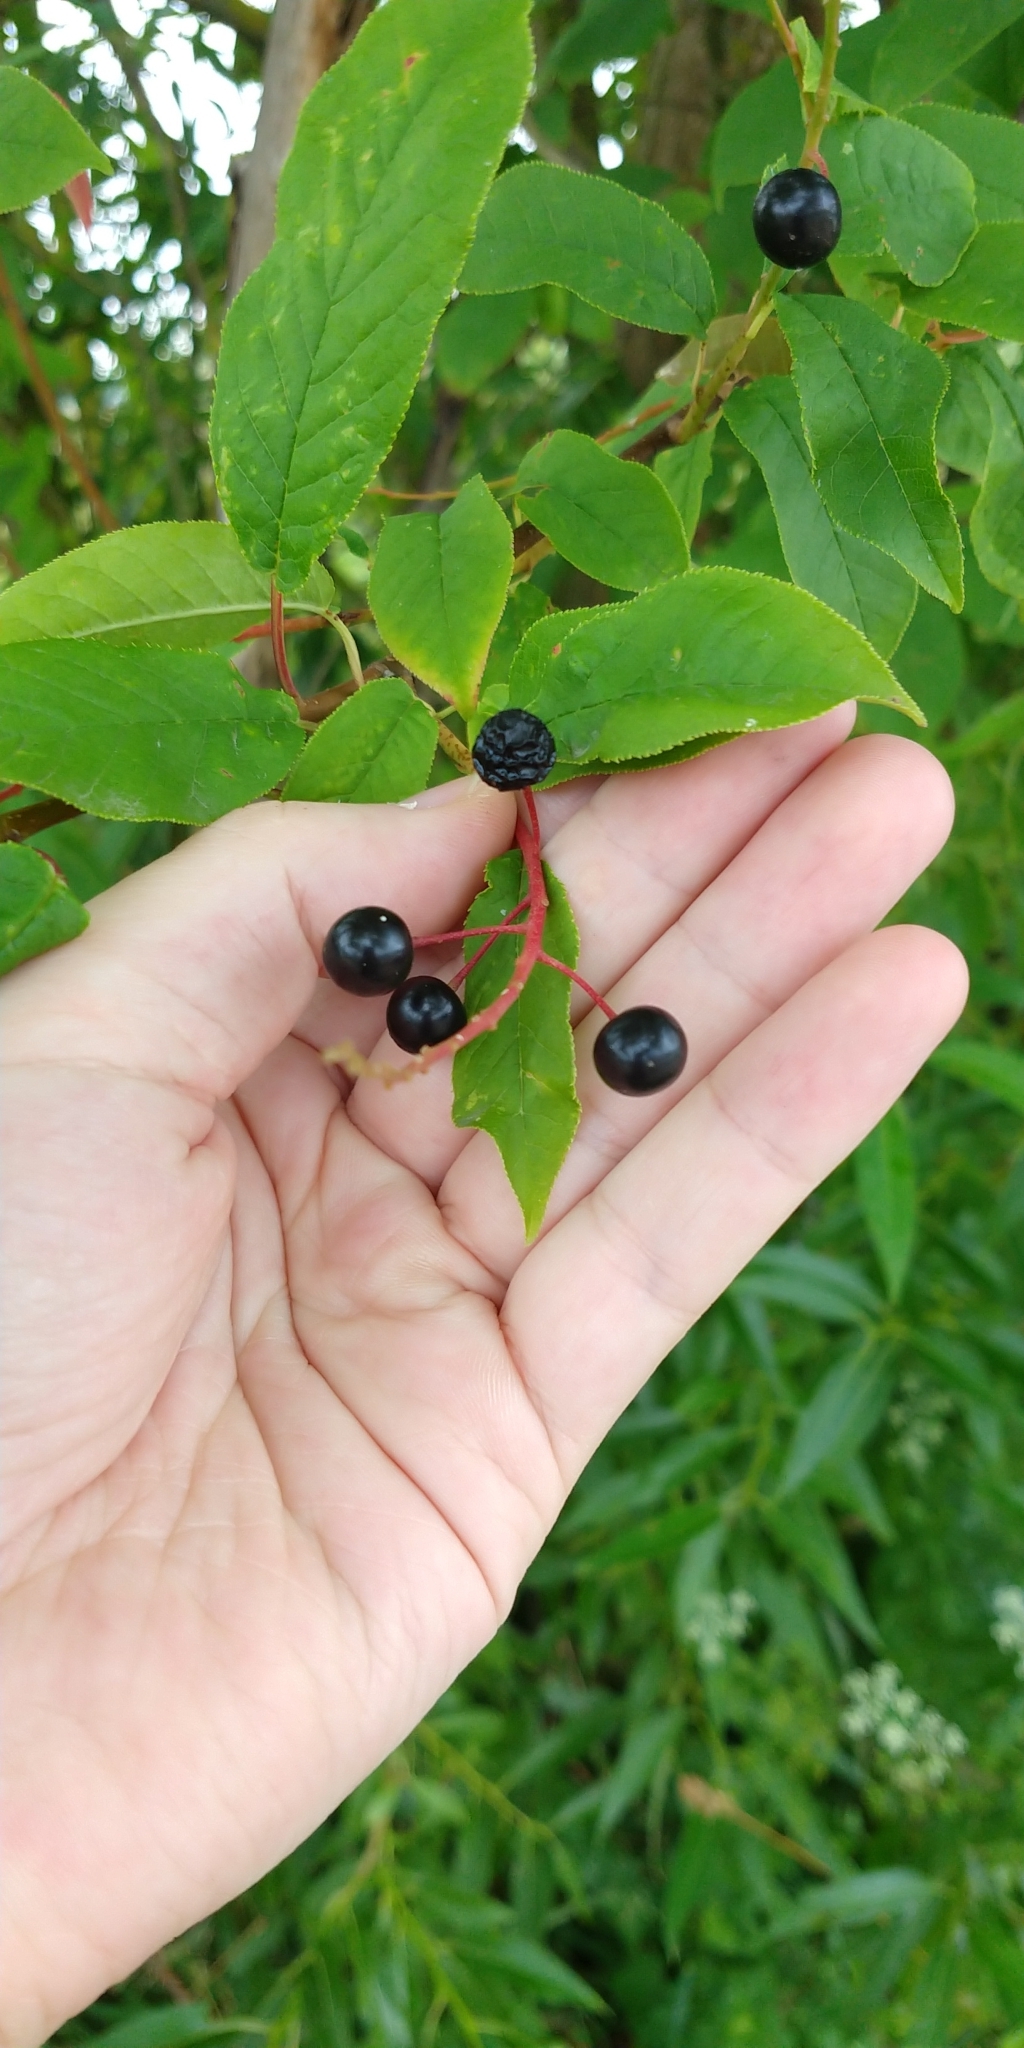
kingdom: Plantae
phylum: Tracheophyta
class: Magnoliopsida
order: Rosales
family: Rosaceae
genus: Prunus
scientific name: Prunus padus
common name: Bird cherry
